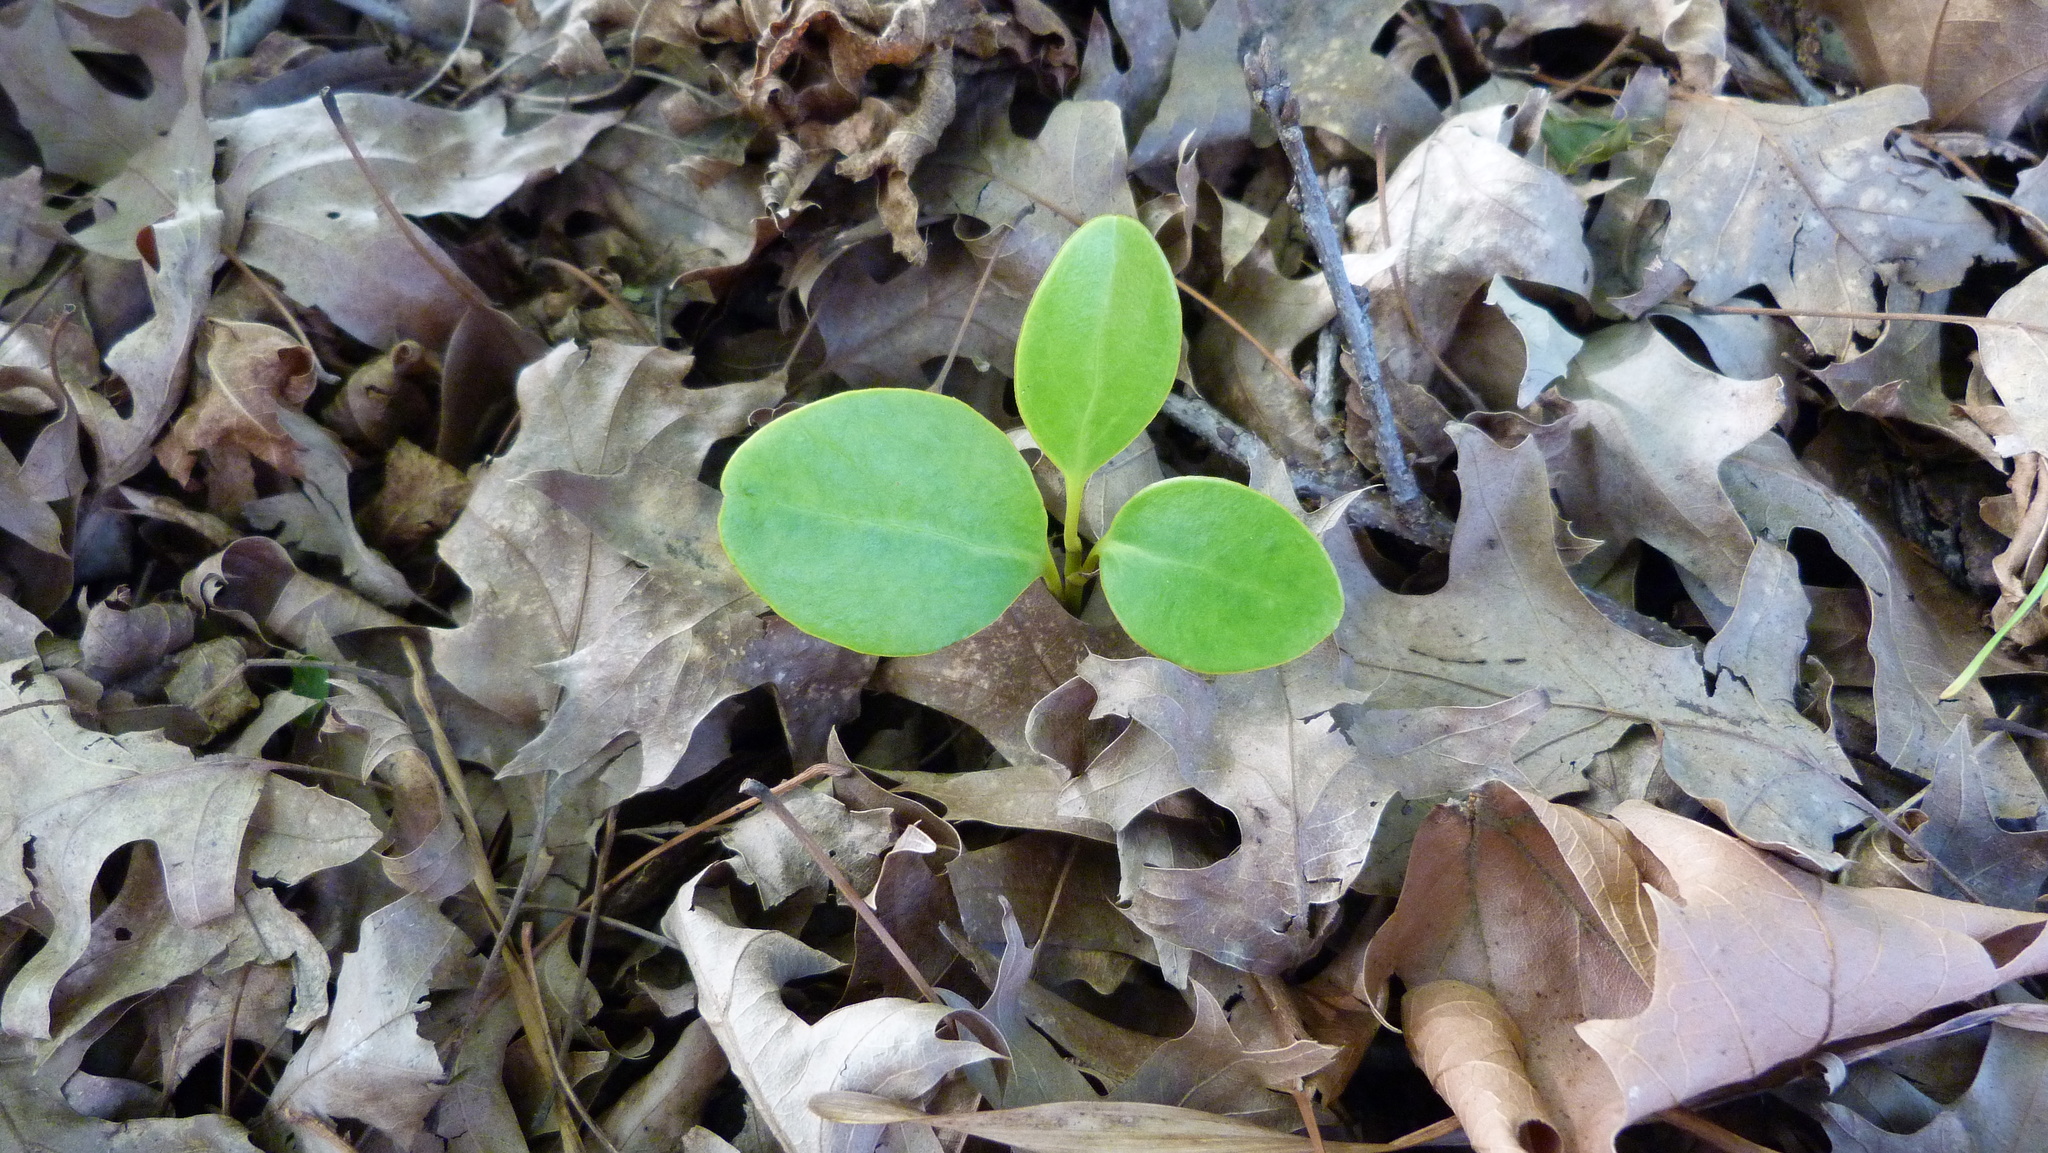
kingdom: Plantae
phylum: Tracheophyta
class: Magnoliopsida
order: Apiales
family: Griseliniaceae
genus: Griselinia
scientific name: Griselinia littoralis
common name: New zealand broadleaf
